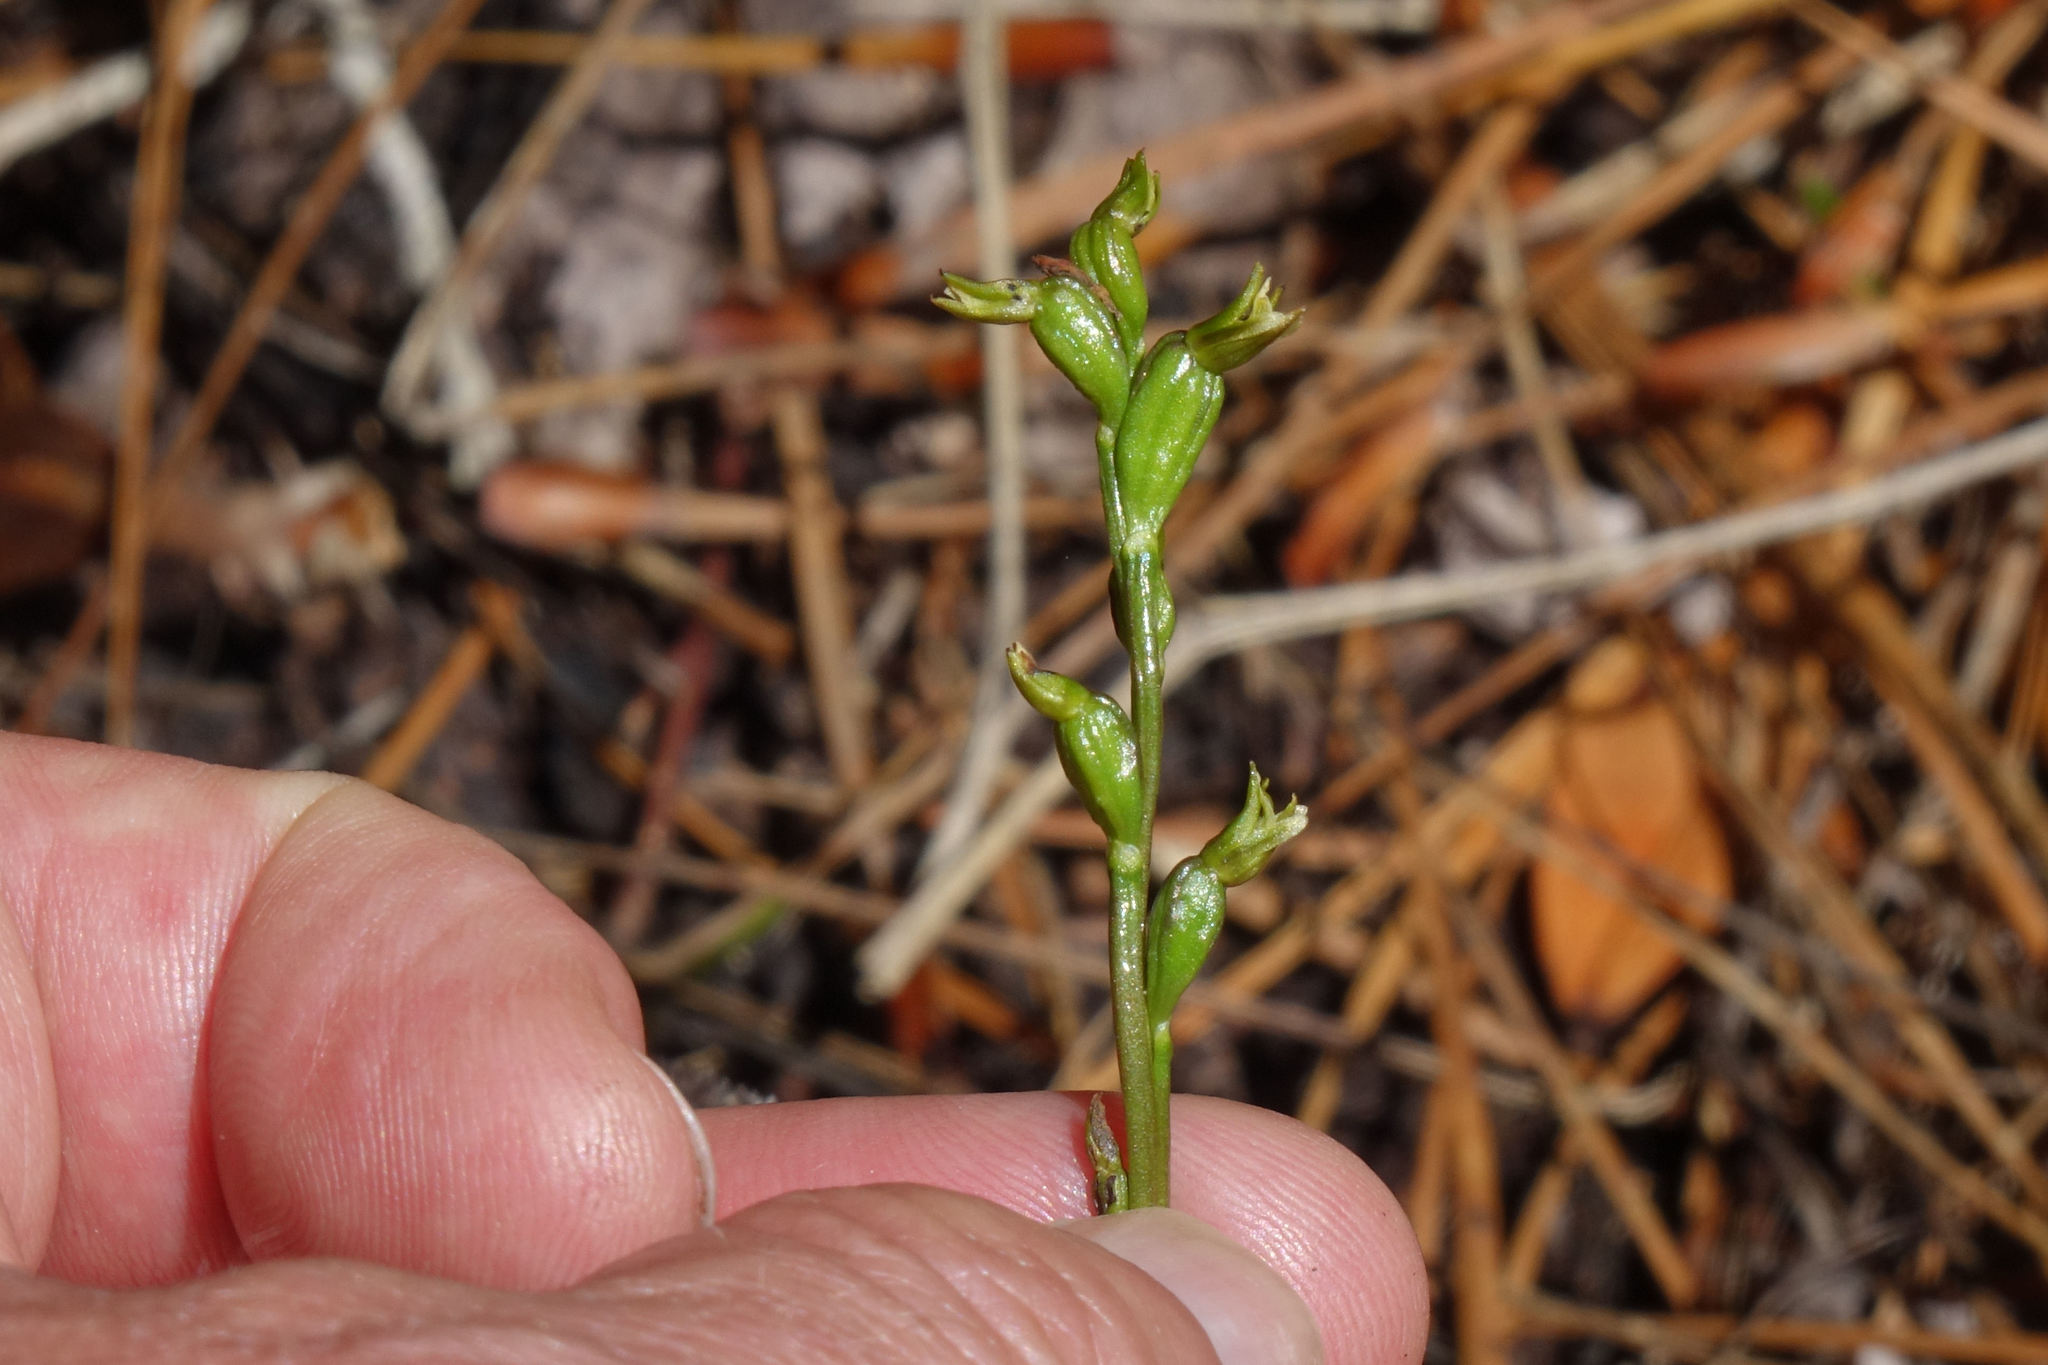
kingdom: Plantae
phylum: Tracheophyta
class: Liliopsida
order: Asparagales
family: Orchidaceae
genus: Prasophyllum
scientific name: Prasophyllum colensoi
